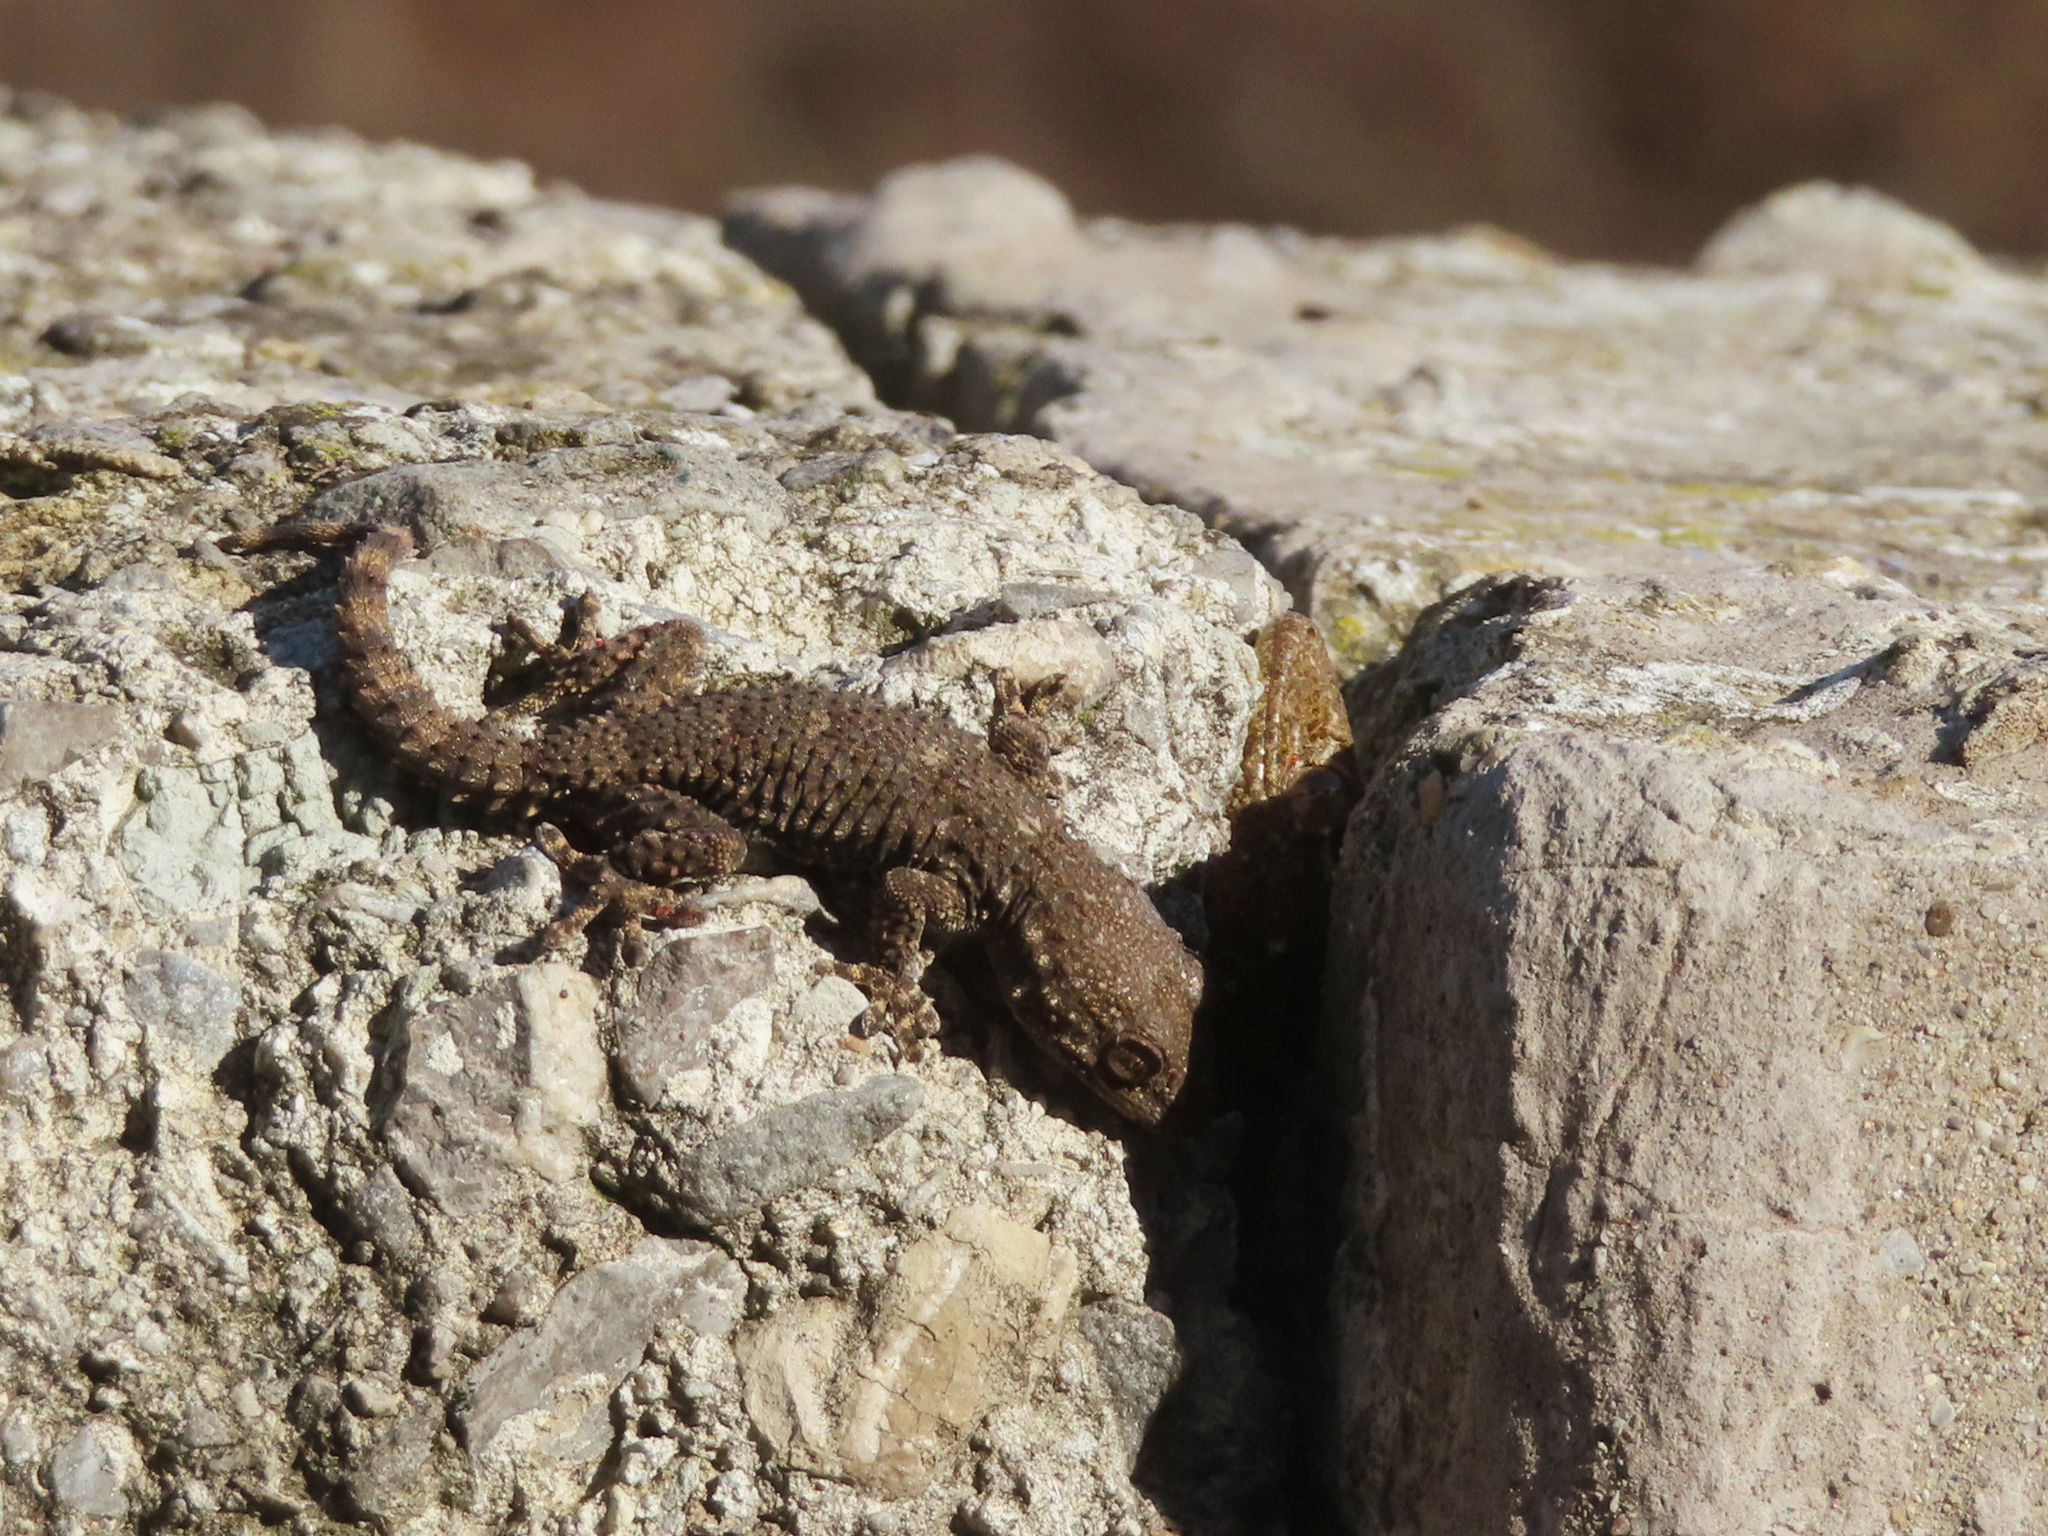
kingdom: Animalia
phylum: Chordata
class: Squamata
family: Phyllodactylidae
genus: Tarentola
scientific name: Tarentola mauritanica
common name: Moorish gecko
